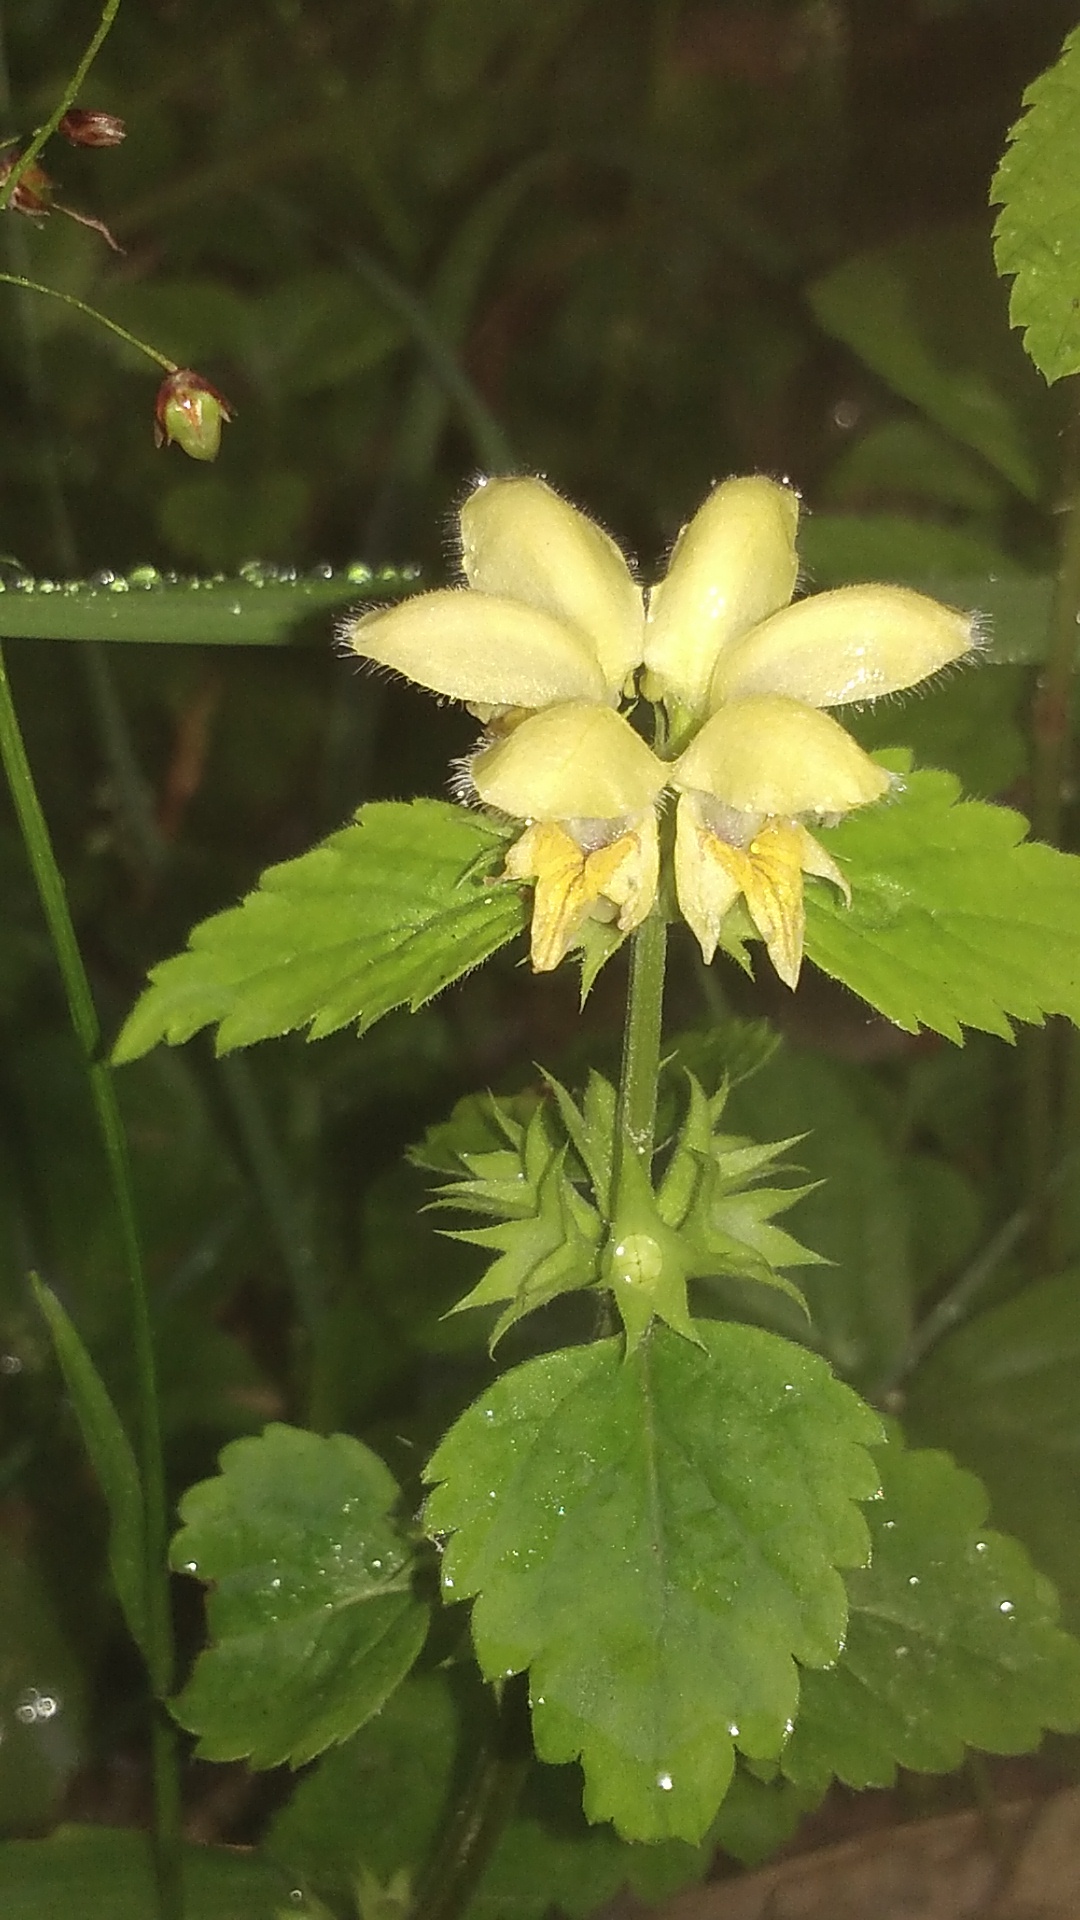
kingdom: Plantae
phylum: Tracheophyta
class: Magnoliopsida
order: Lamiales
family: Lamiaceae
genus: Lamium
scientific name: Lamium galeobdolon
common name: Yellow archangel
